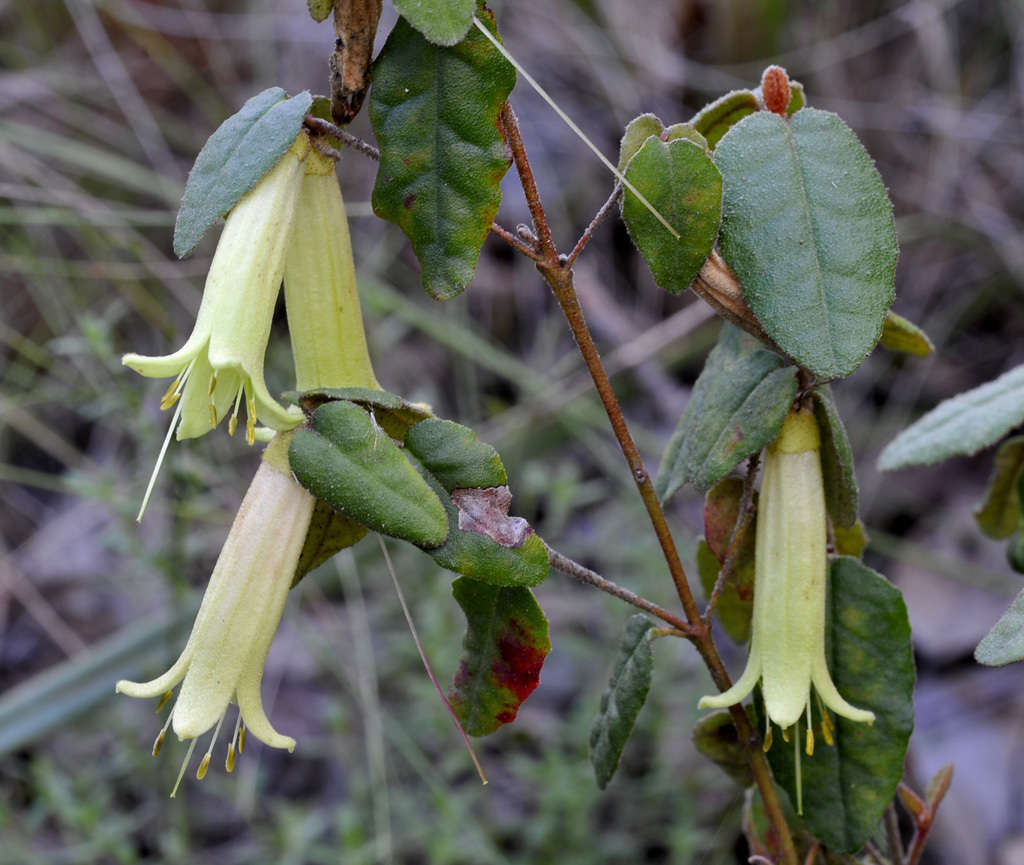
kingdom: Plantae
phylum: Tracheophyta
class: Magnoliopsida
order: Sapindales
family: Rutaceae
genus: Correa
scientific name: Correa reflexa
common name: Common correa
